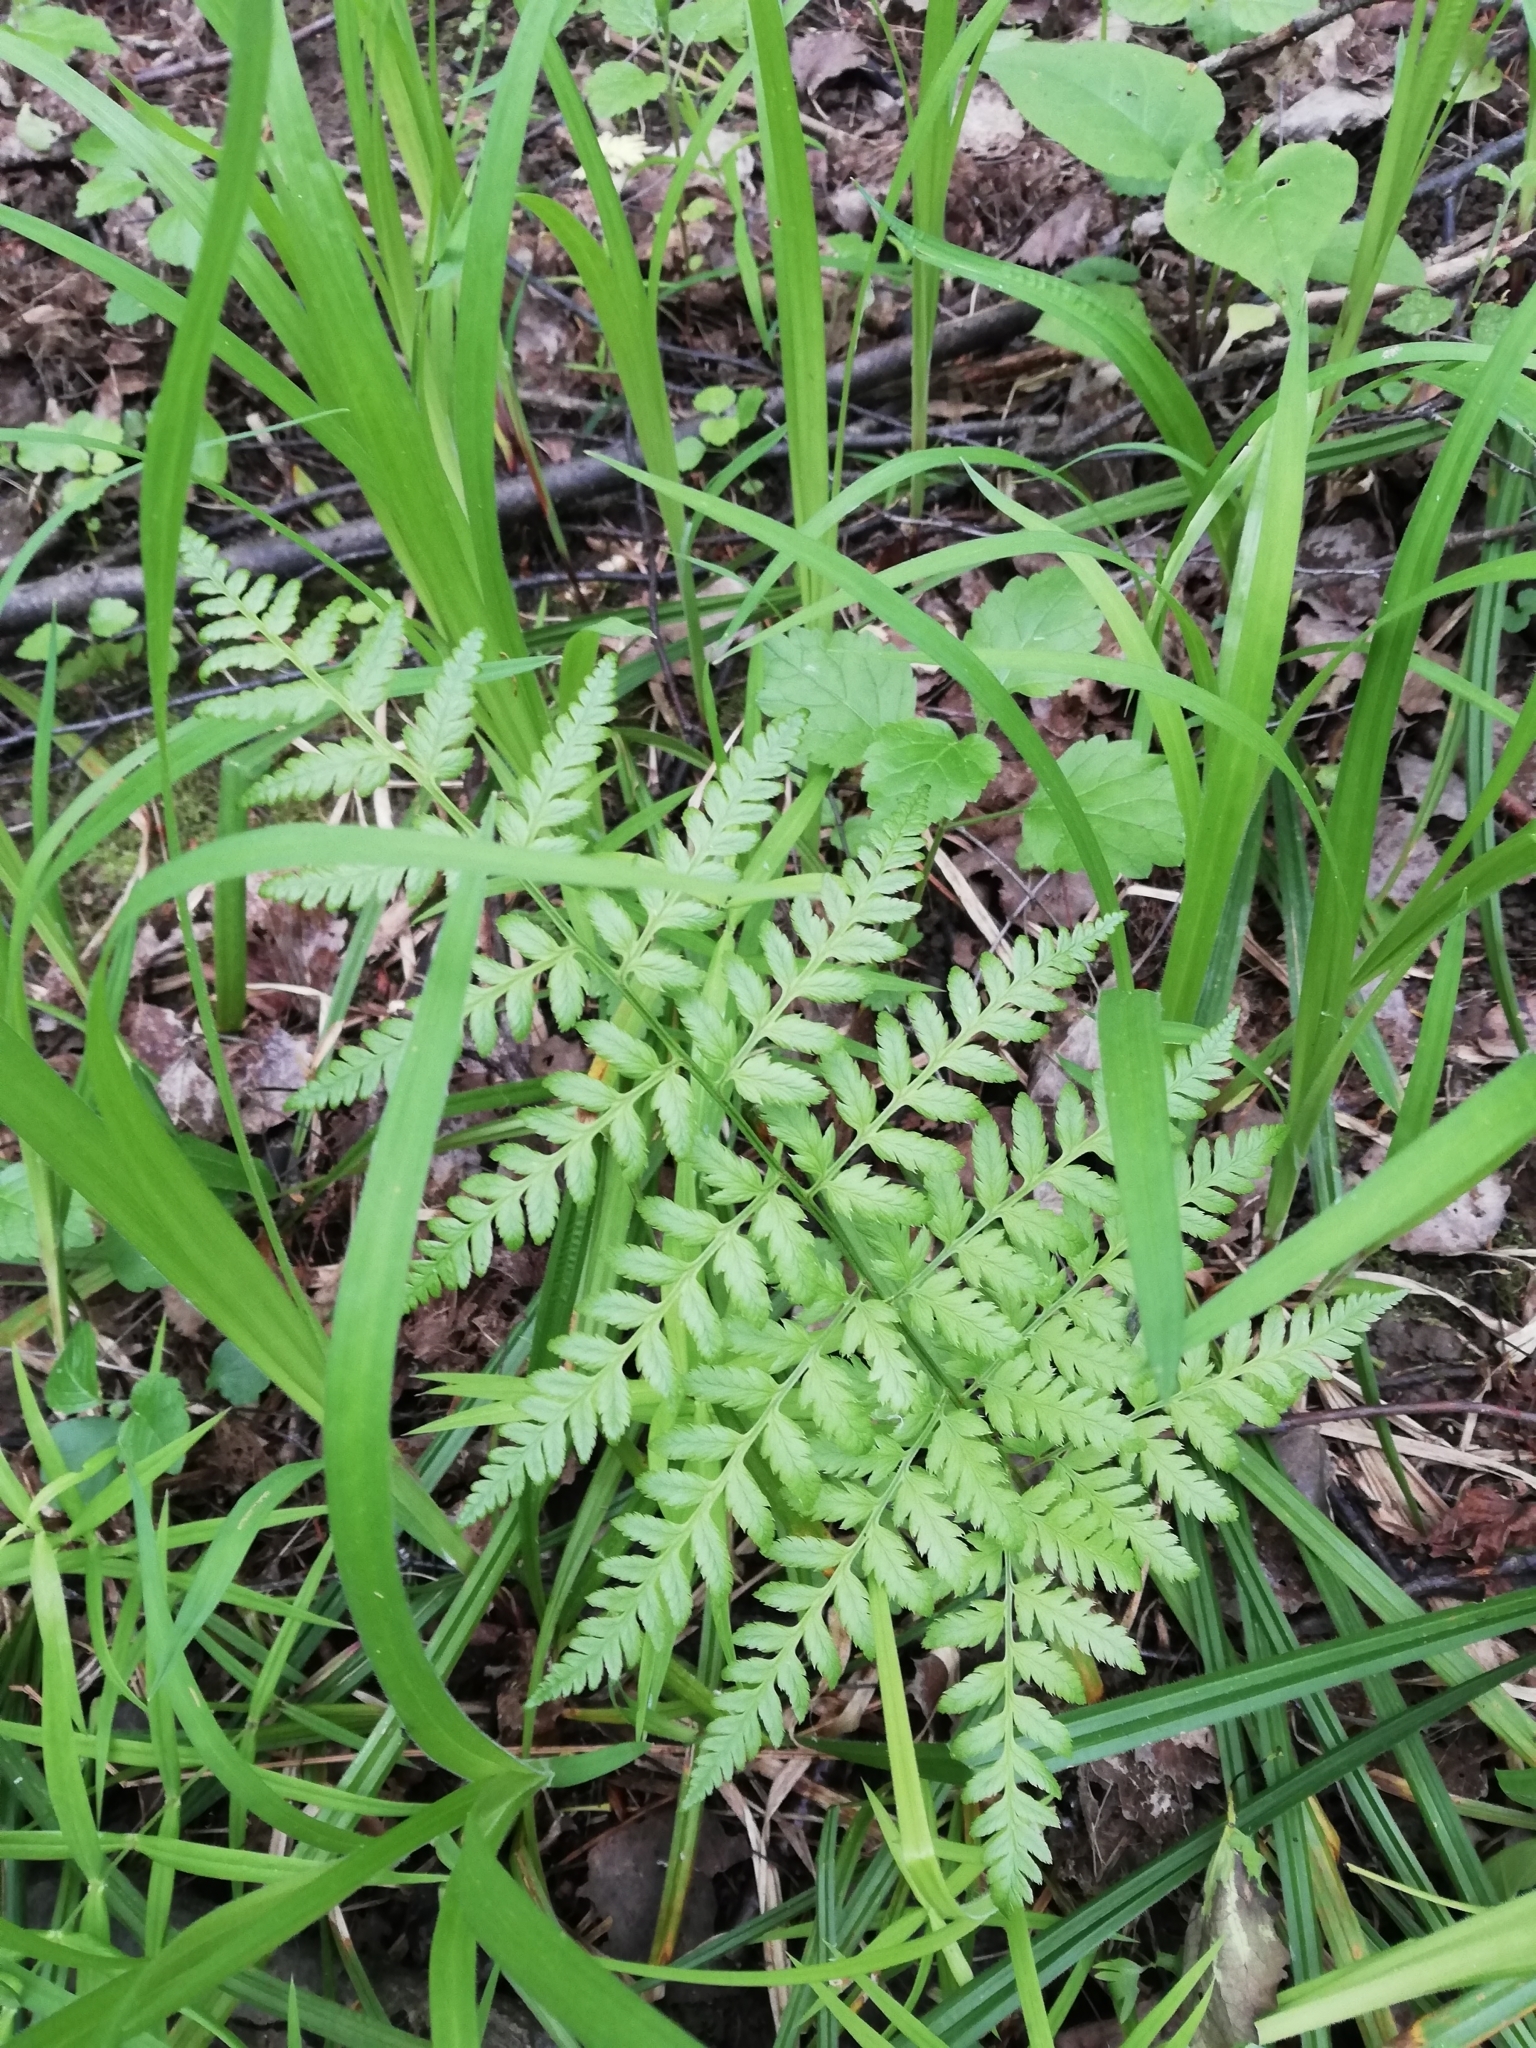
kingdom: Plantae
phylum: Tracheophyta
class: Polypodiopsida
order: Polypodiales
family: Dryopteridaceae
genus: Dryopteris
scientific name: Dryopteris carthusiana
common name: Narrow buckler-fern
